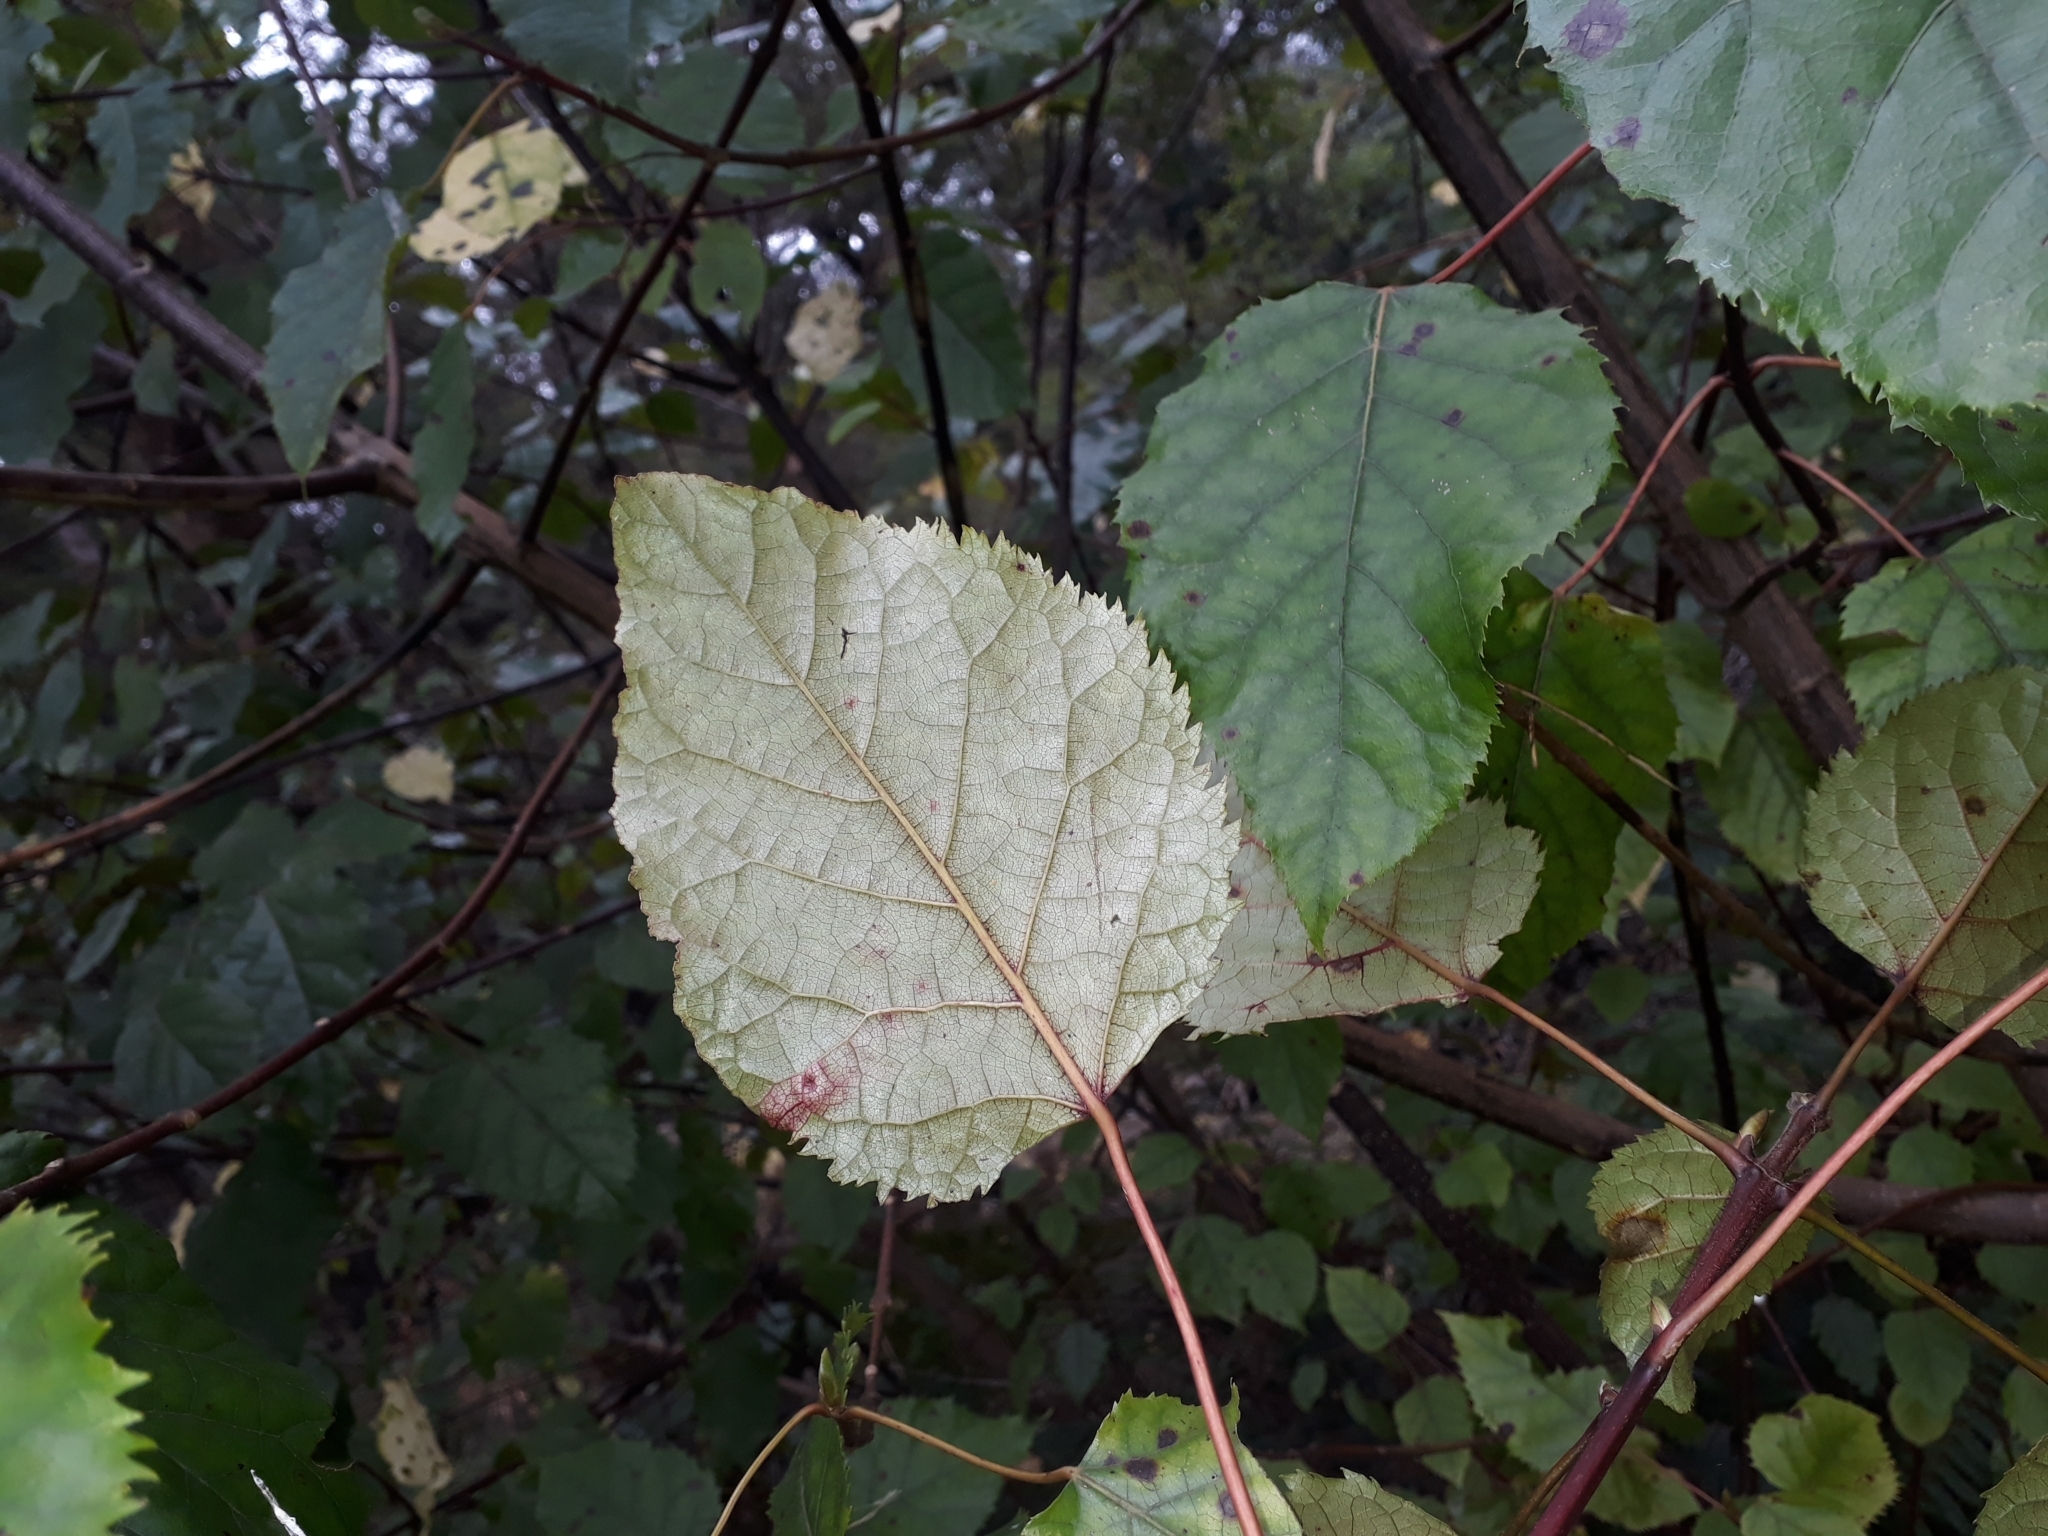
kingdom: Plantae
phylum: Tracheophyta
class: Magnoliopsida
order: Oxalidales
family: Elaeocarpaceae
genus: Aristotelia
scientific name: Aristotelia serrata
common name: New zealand wineberry
